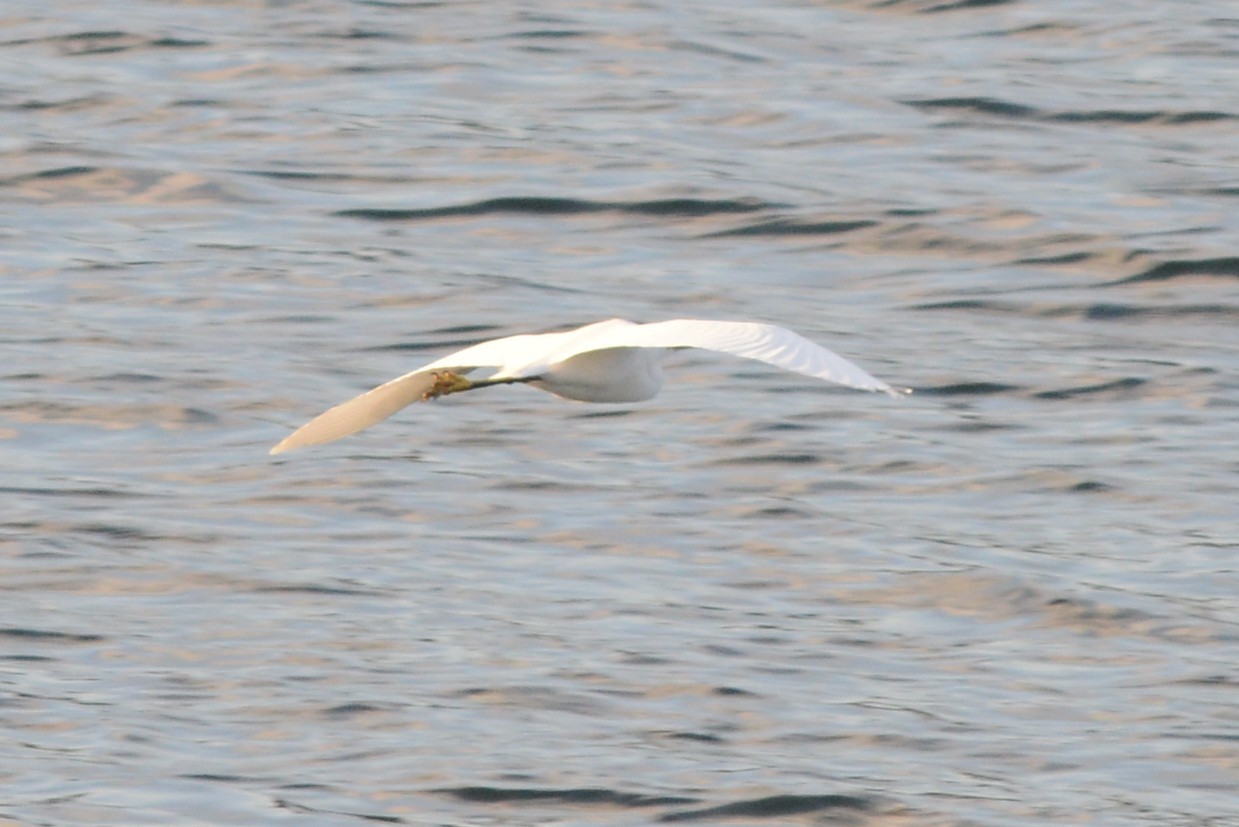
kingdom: Animalia
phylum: Chordata
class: Aves
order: Pelecaniformes
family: Ardeidae
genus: Egretta
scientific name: Egretta thula
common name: Snowy egret
